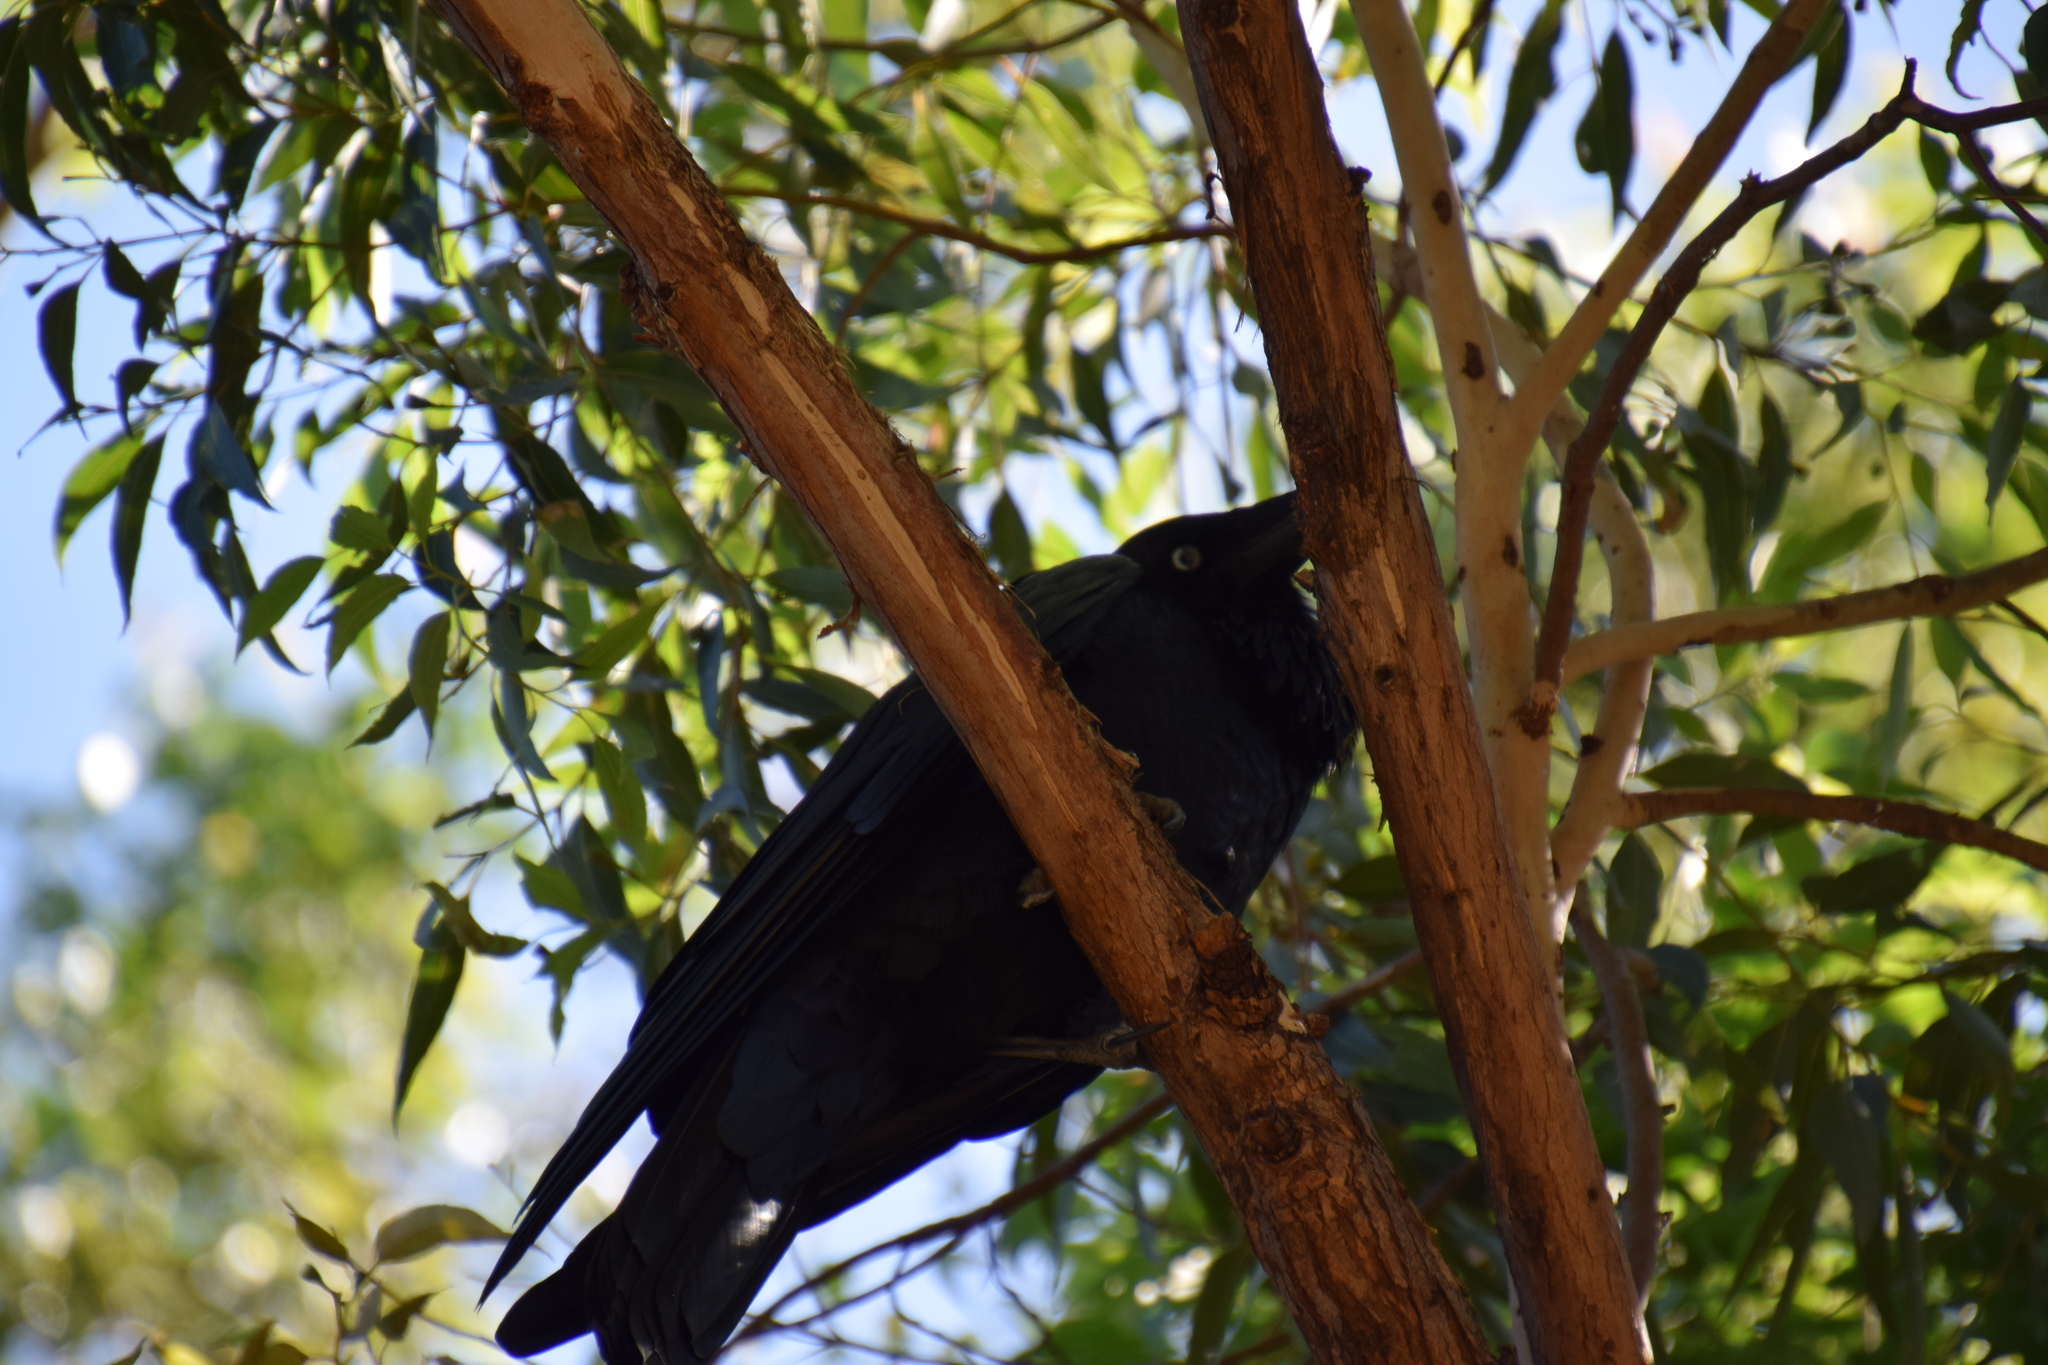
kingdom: Animalia
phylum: Chordata
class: Aves
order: Passeriformes
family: Corvidae
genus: Corvus
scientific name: Corvus coronoides
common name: Australian raven
